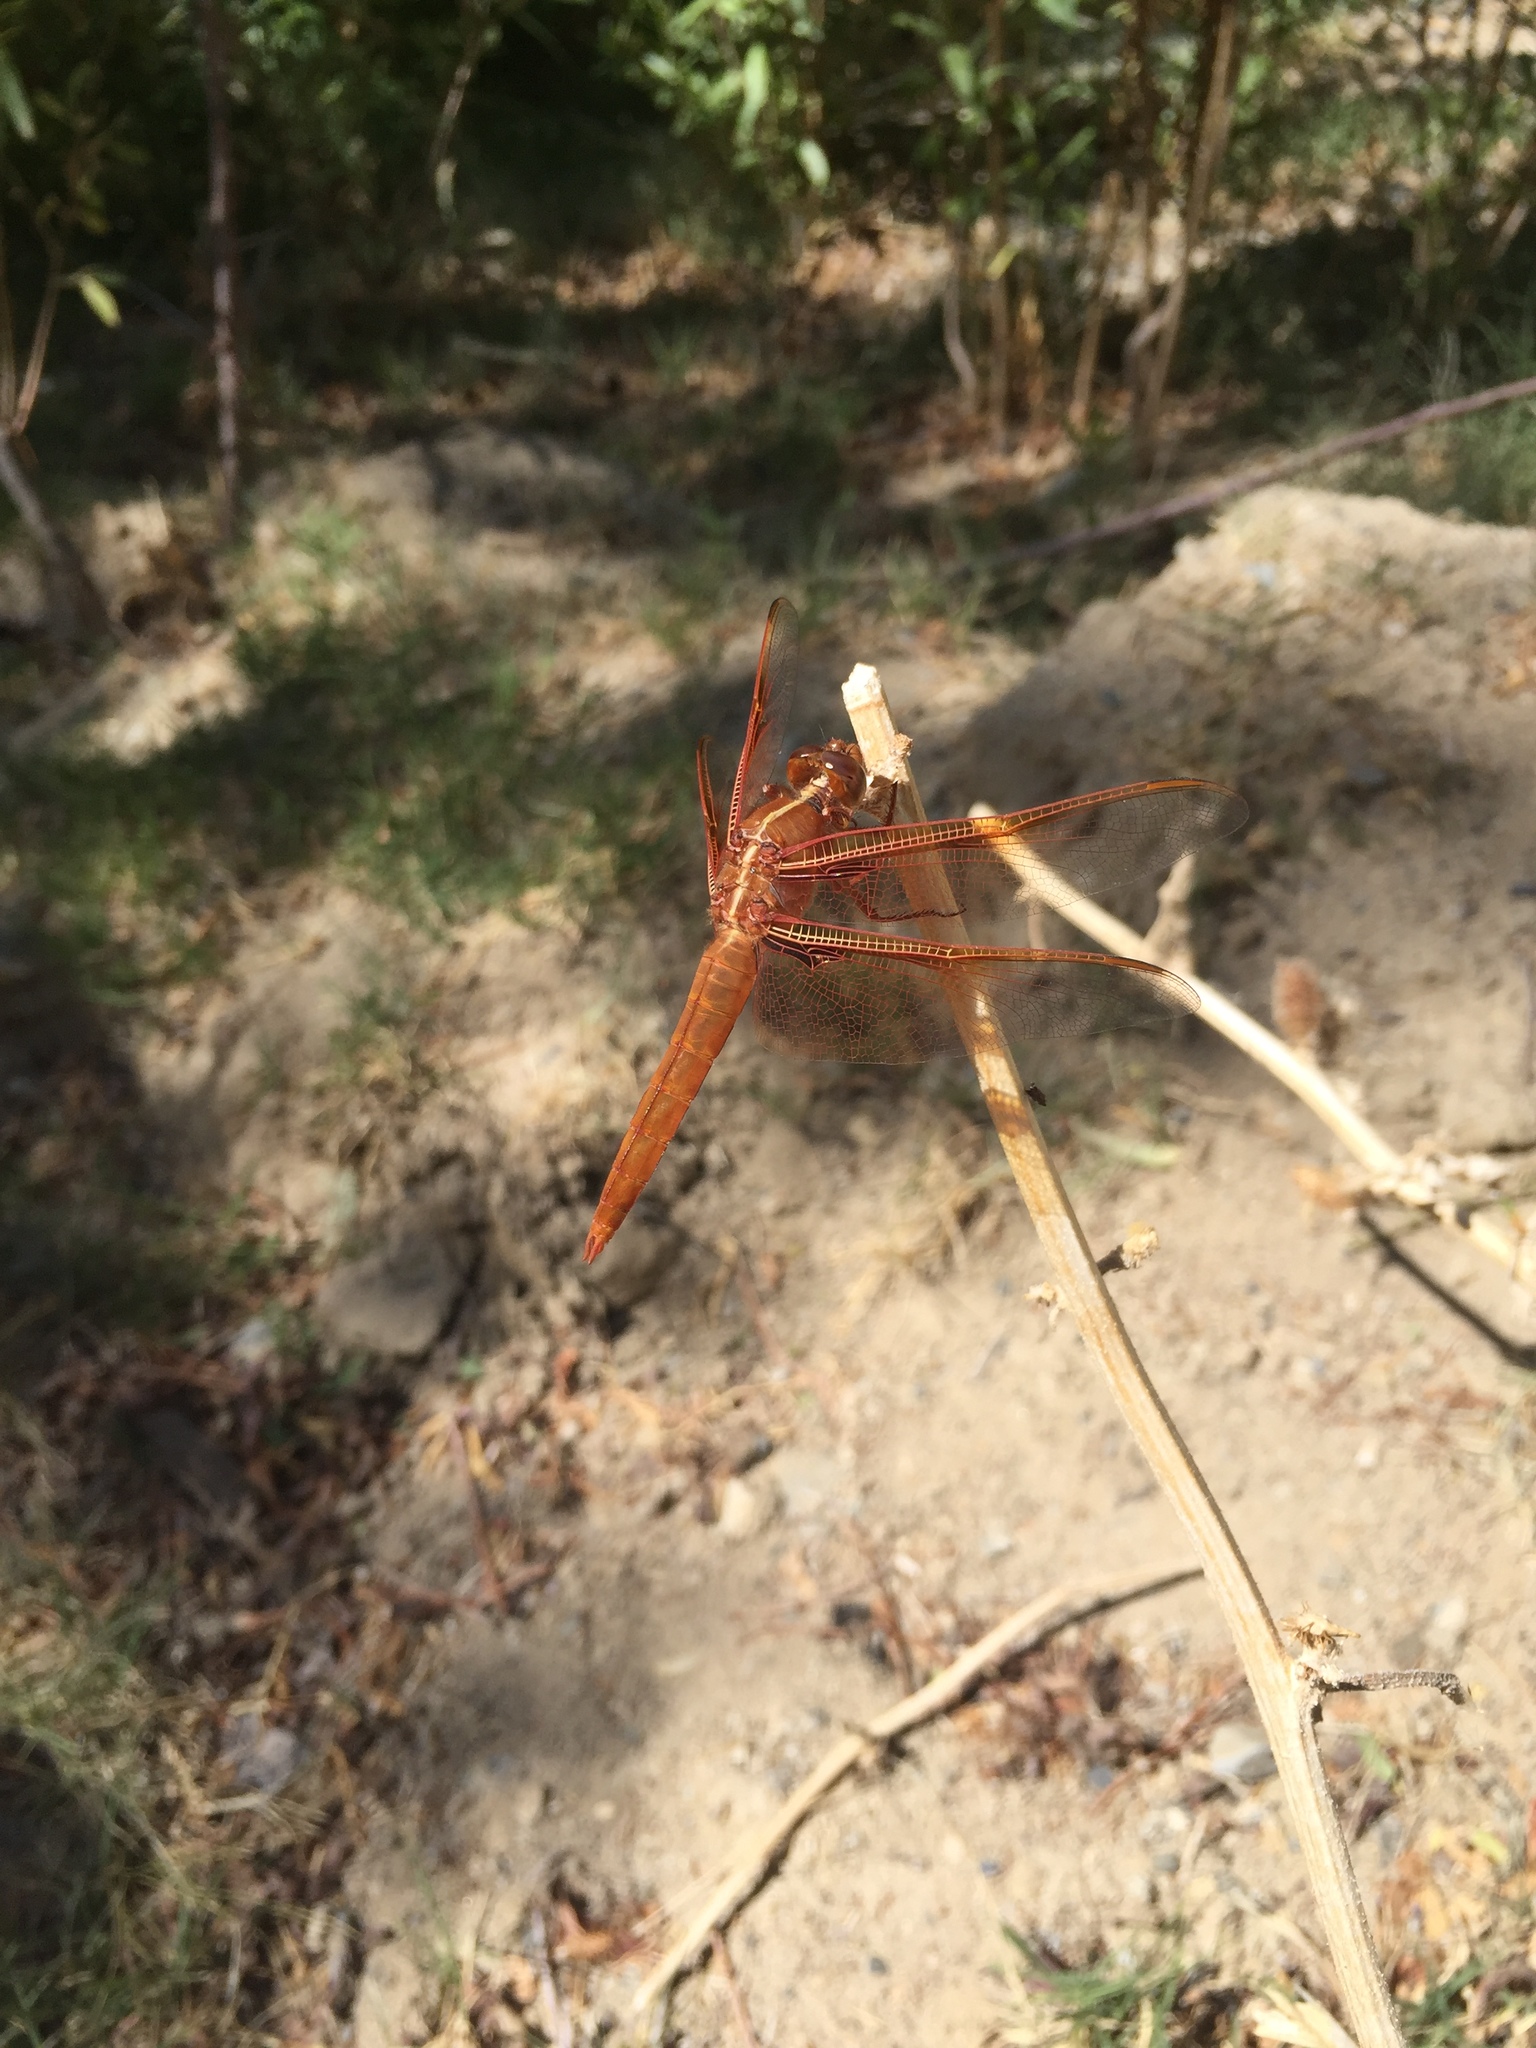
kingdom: Animalia
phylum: Arthropoda
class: Insecta
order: Odonata
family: Libellulidae
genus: Libellula
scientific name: Libellula saturata
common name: Flame skimmer
